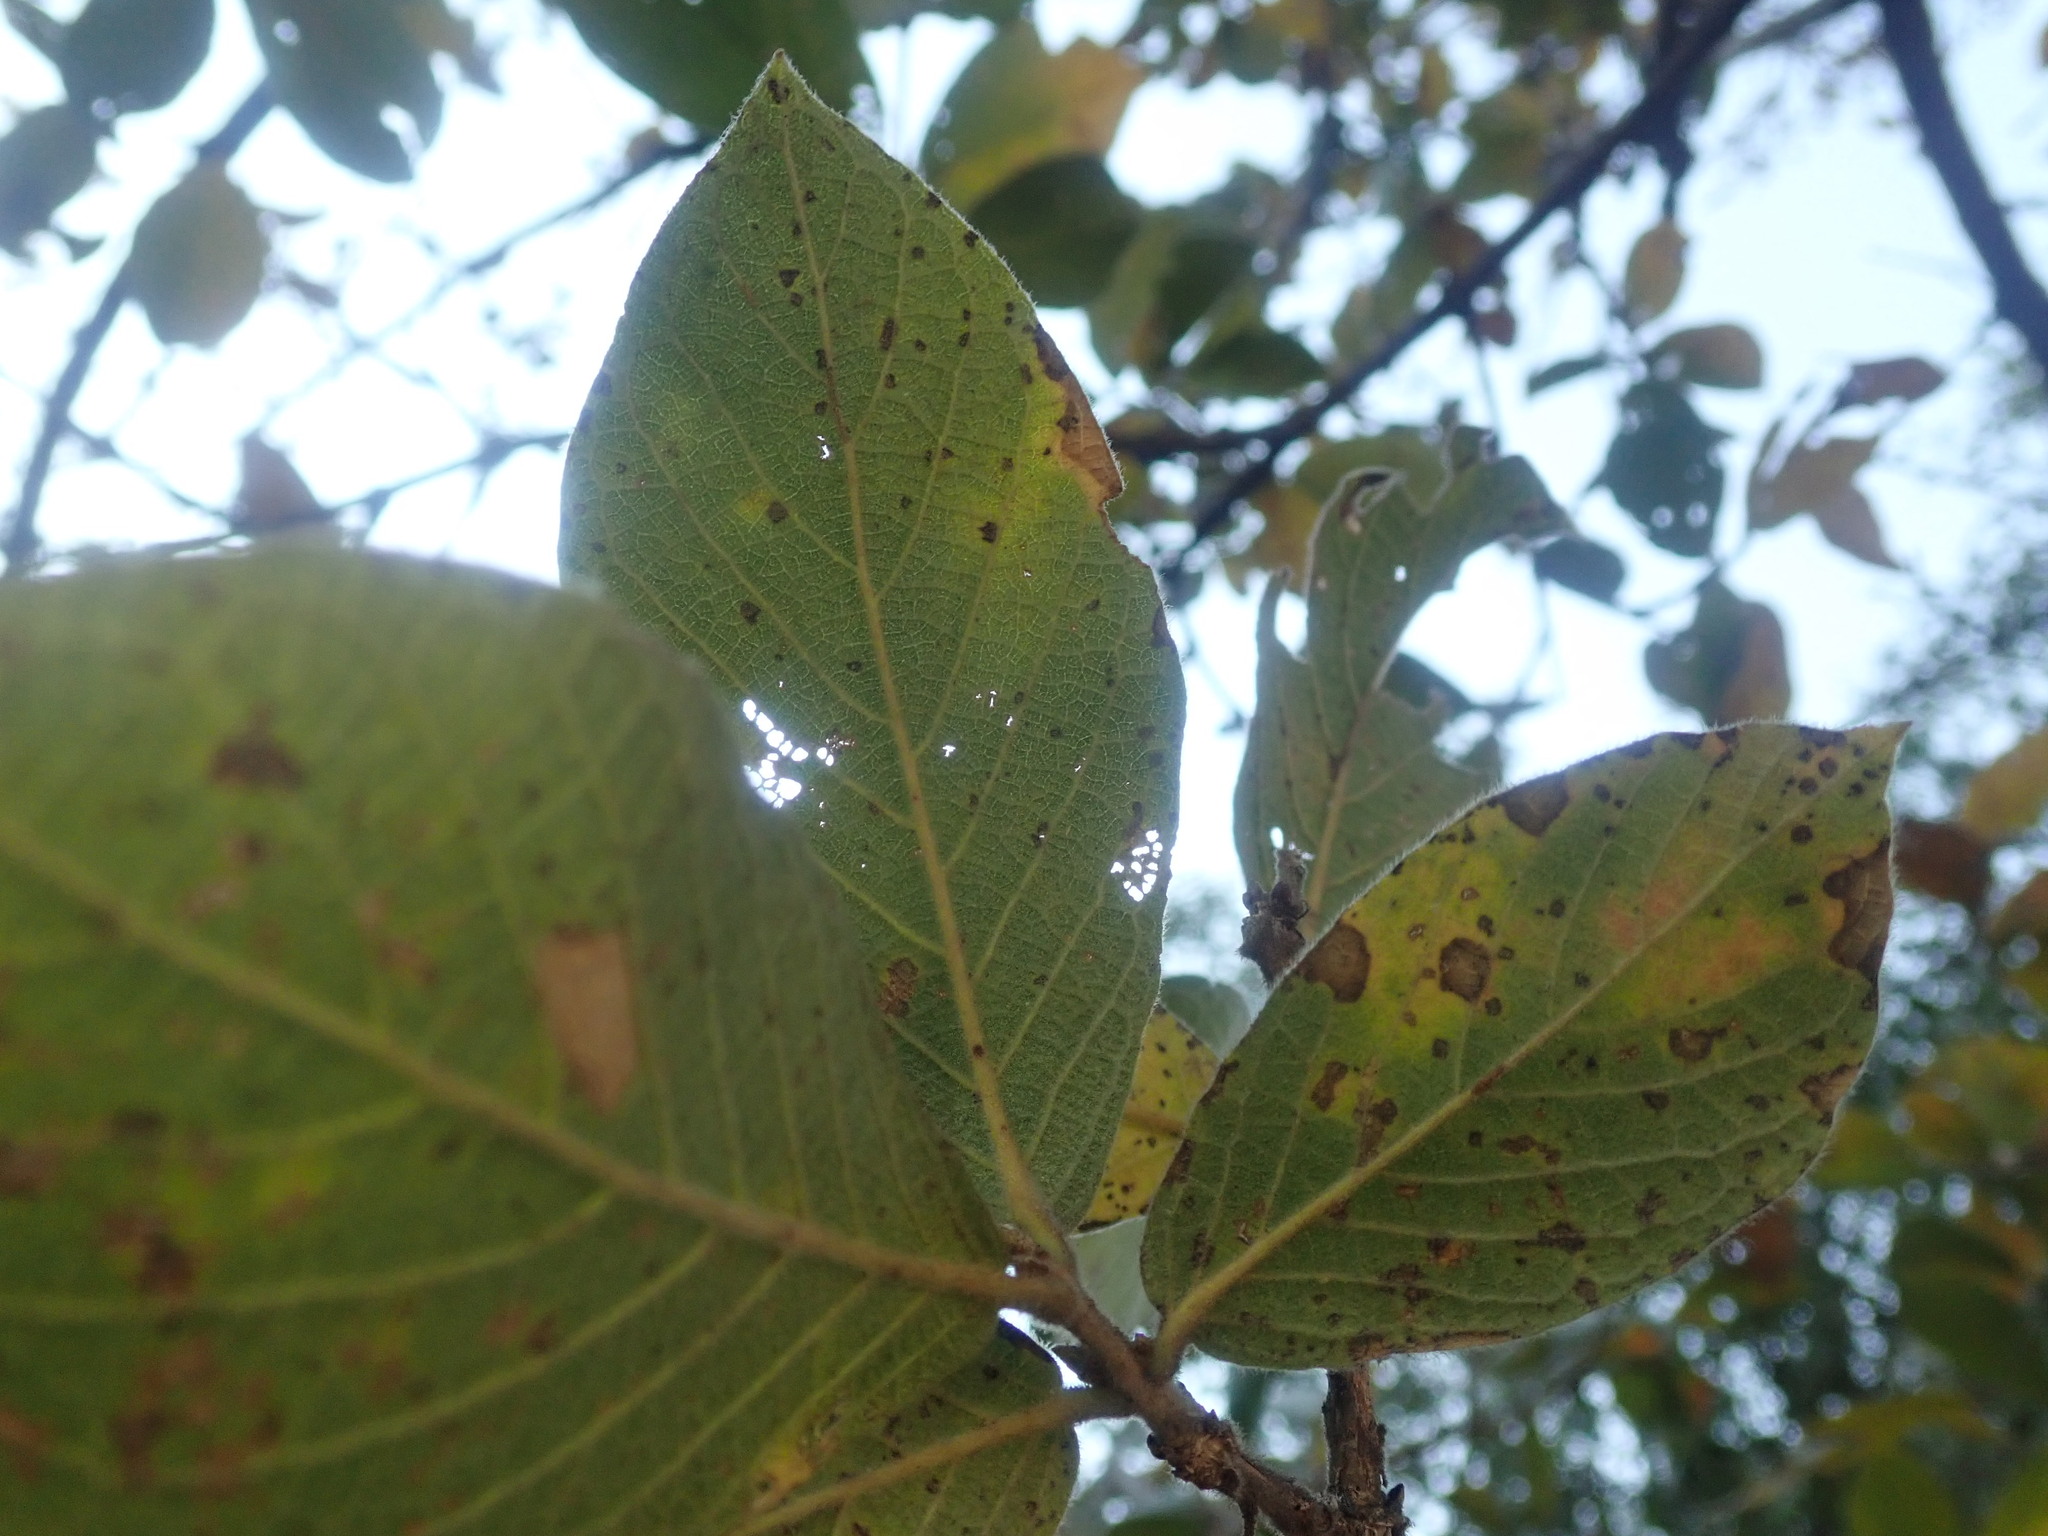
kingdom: Plantae
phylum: Tracheophyta
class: Magnoliopsida
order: Myrtales
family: Combretaceae
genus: Combretum
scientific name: Combretum molle
